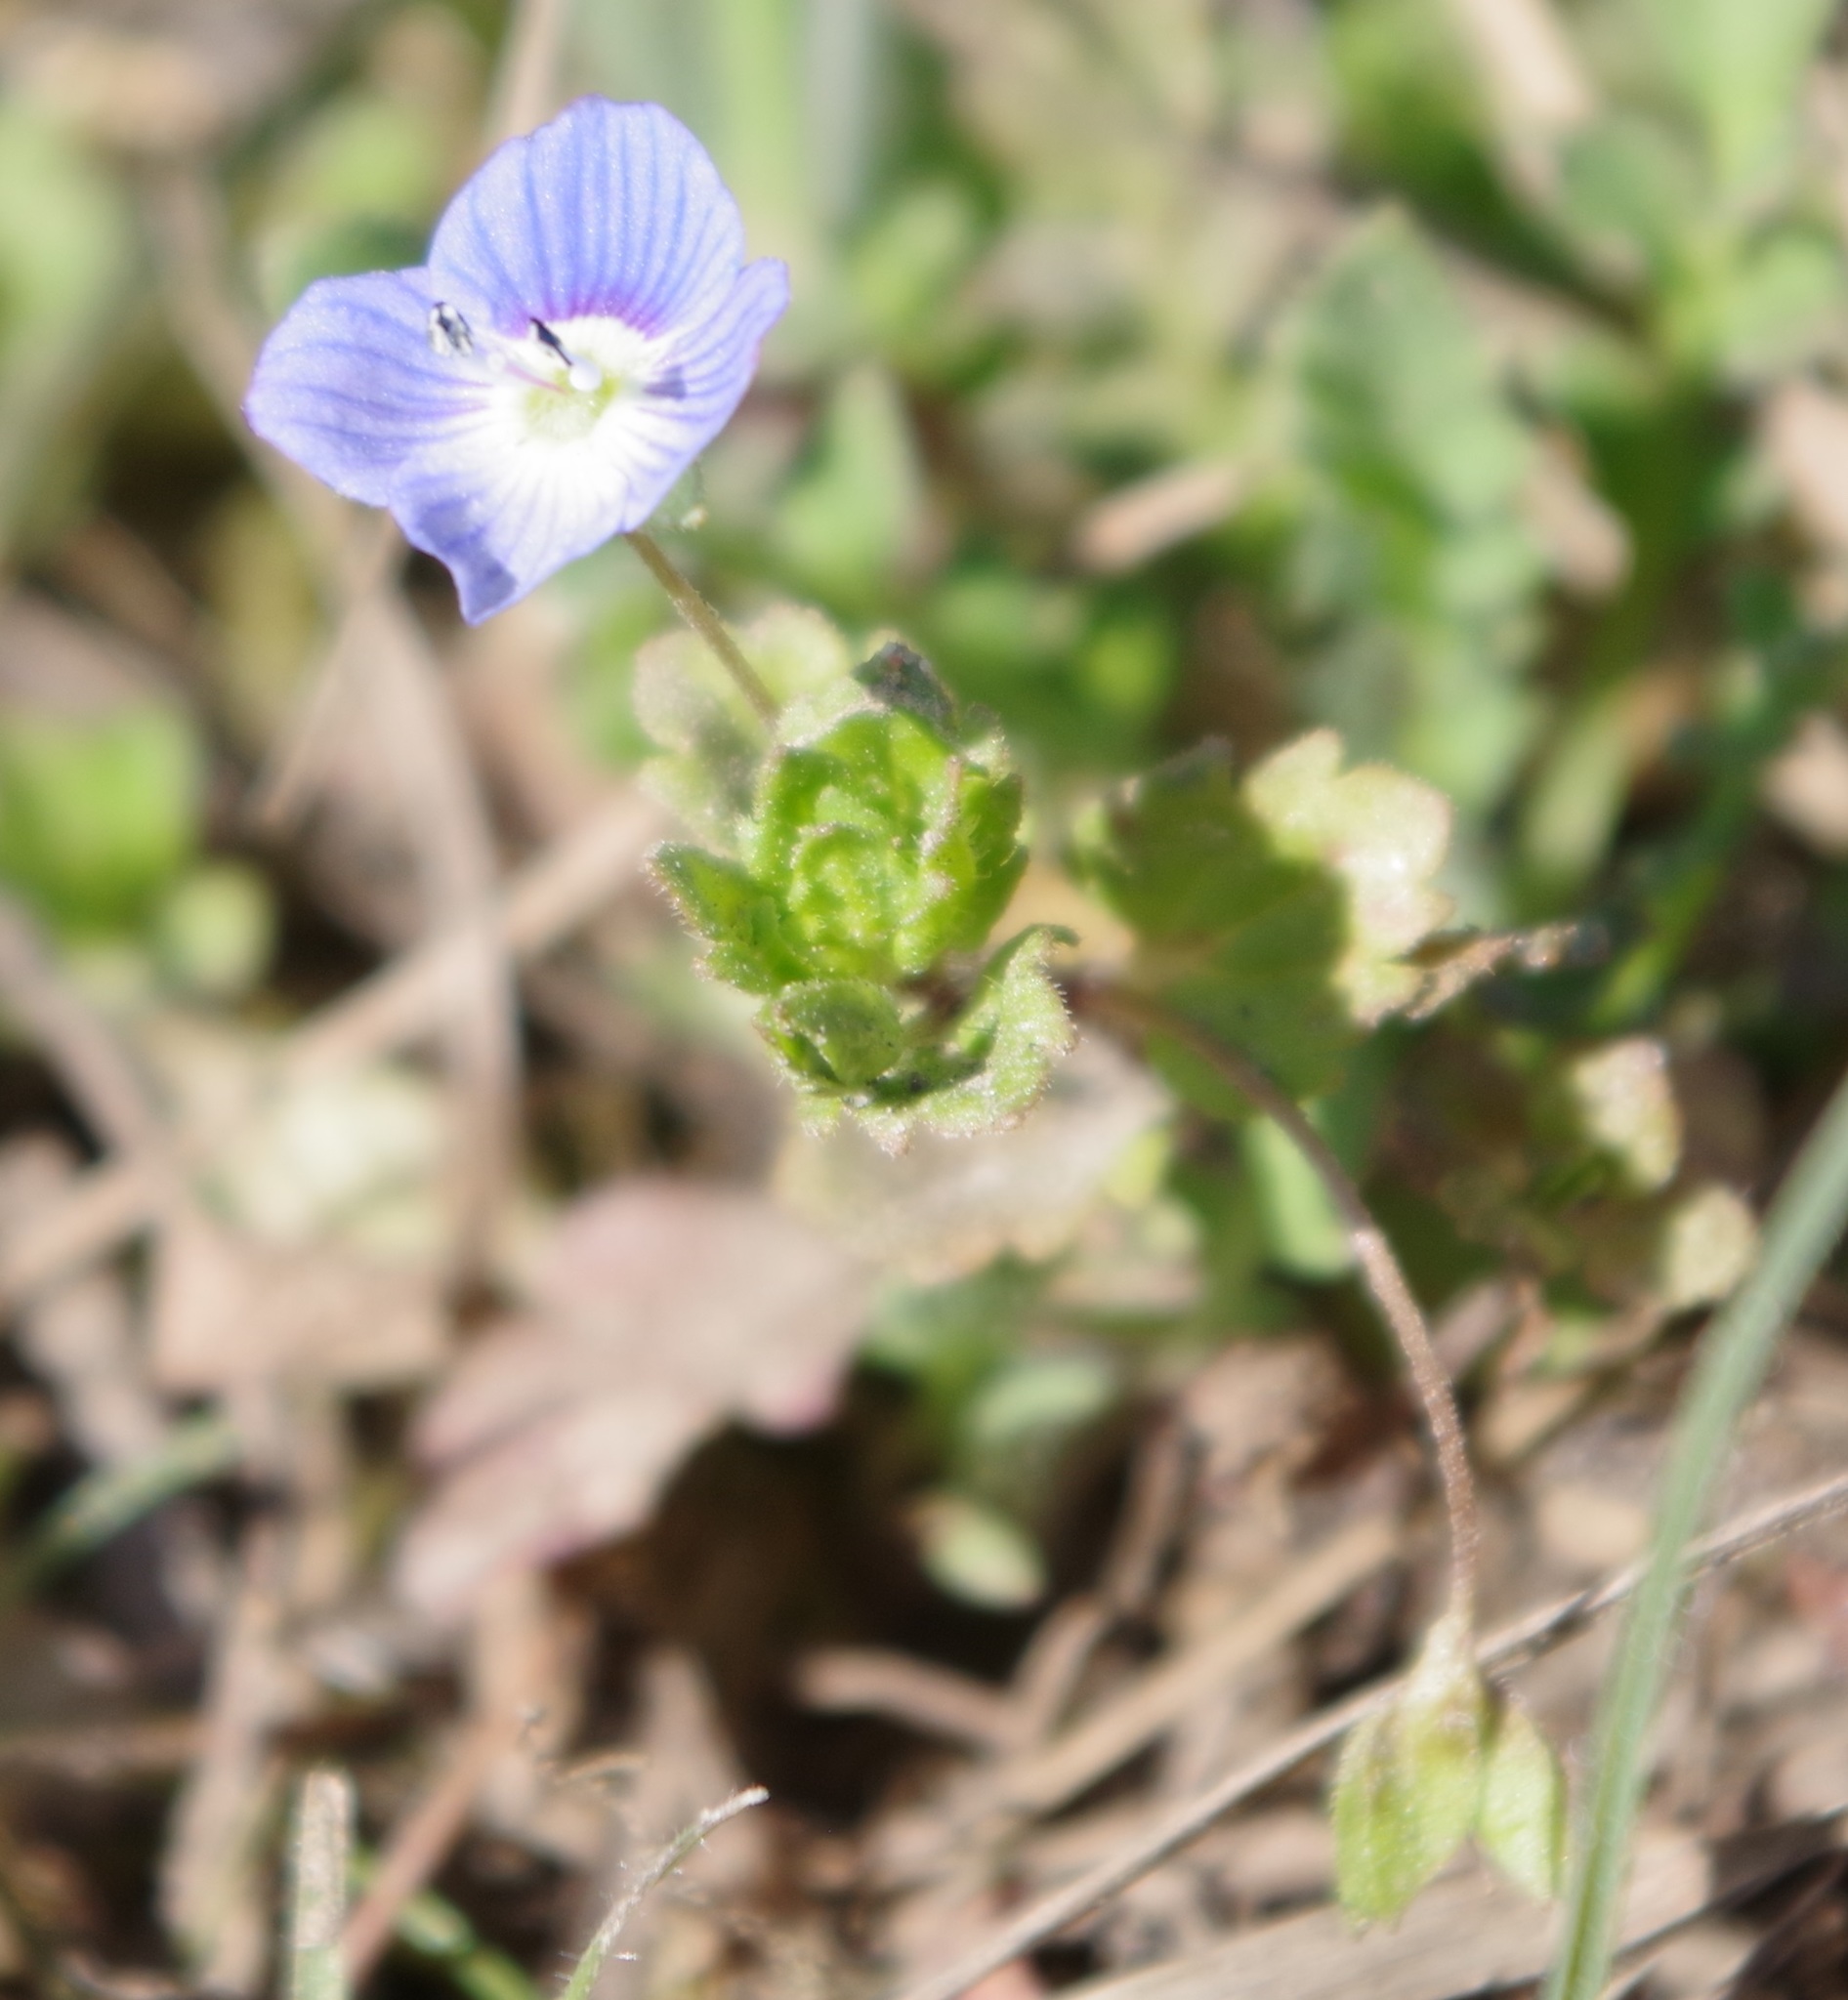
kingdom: Plantae
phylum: Tracheophyta
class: Magnoliopsida
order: Lamiales
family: Plantaginaceae
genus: Veronica
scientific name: Veronica persica
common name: Common field-speedwell
